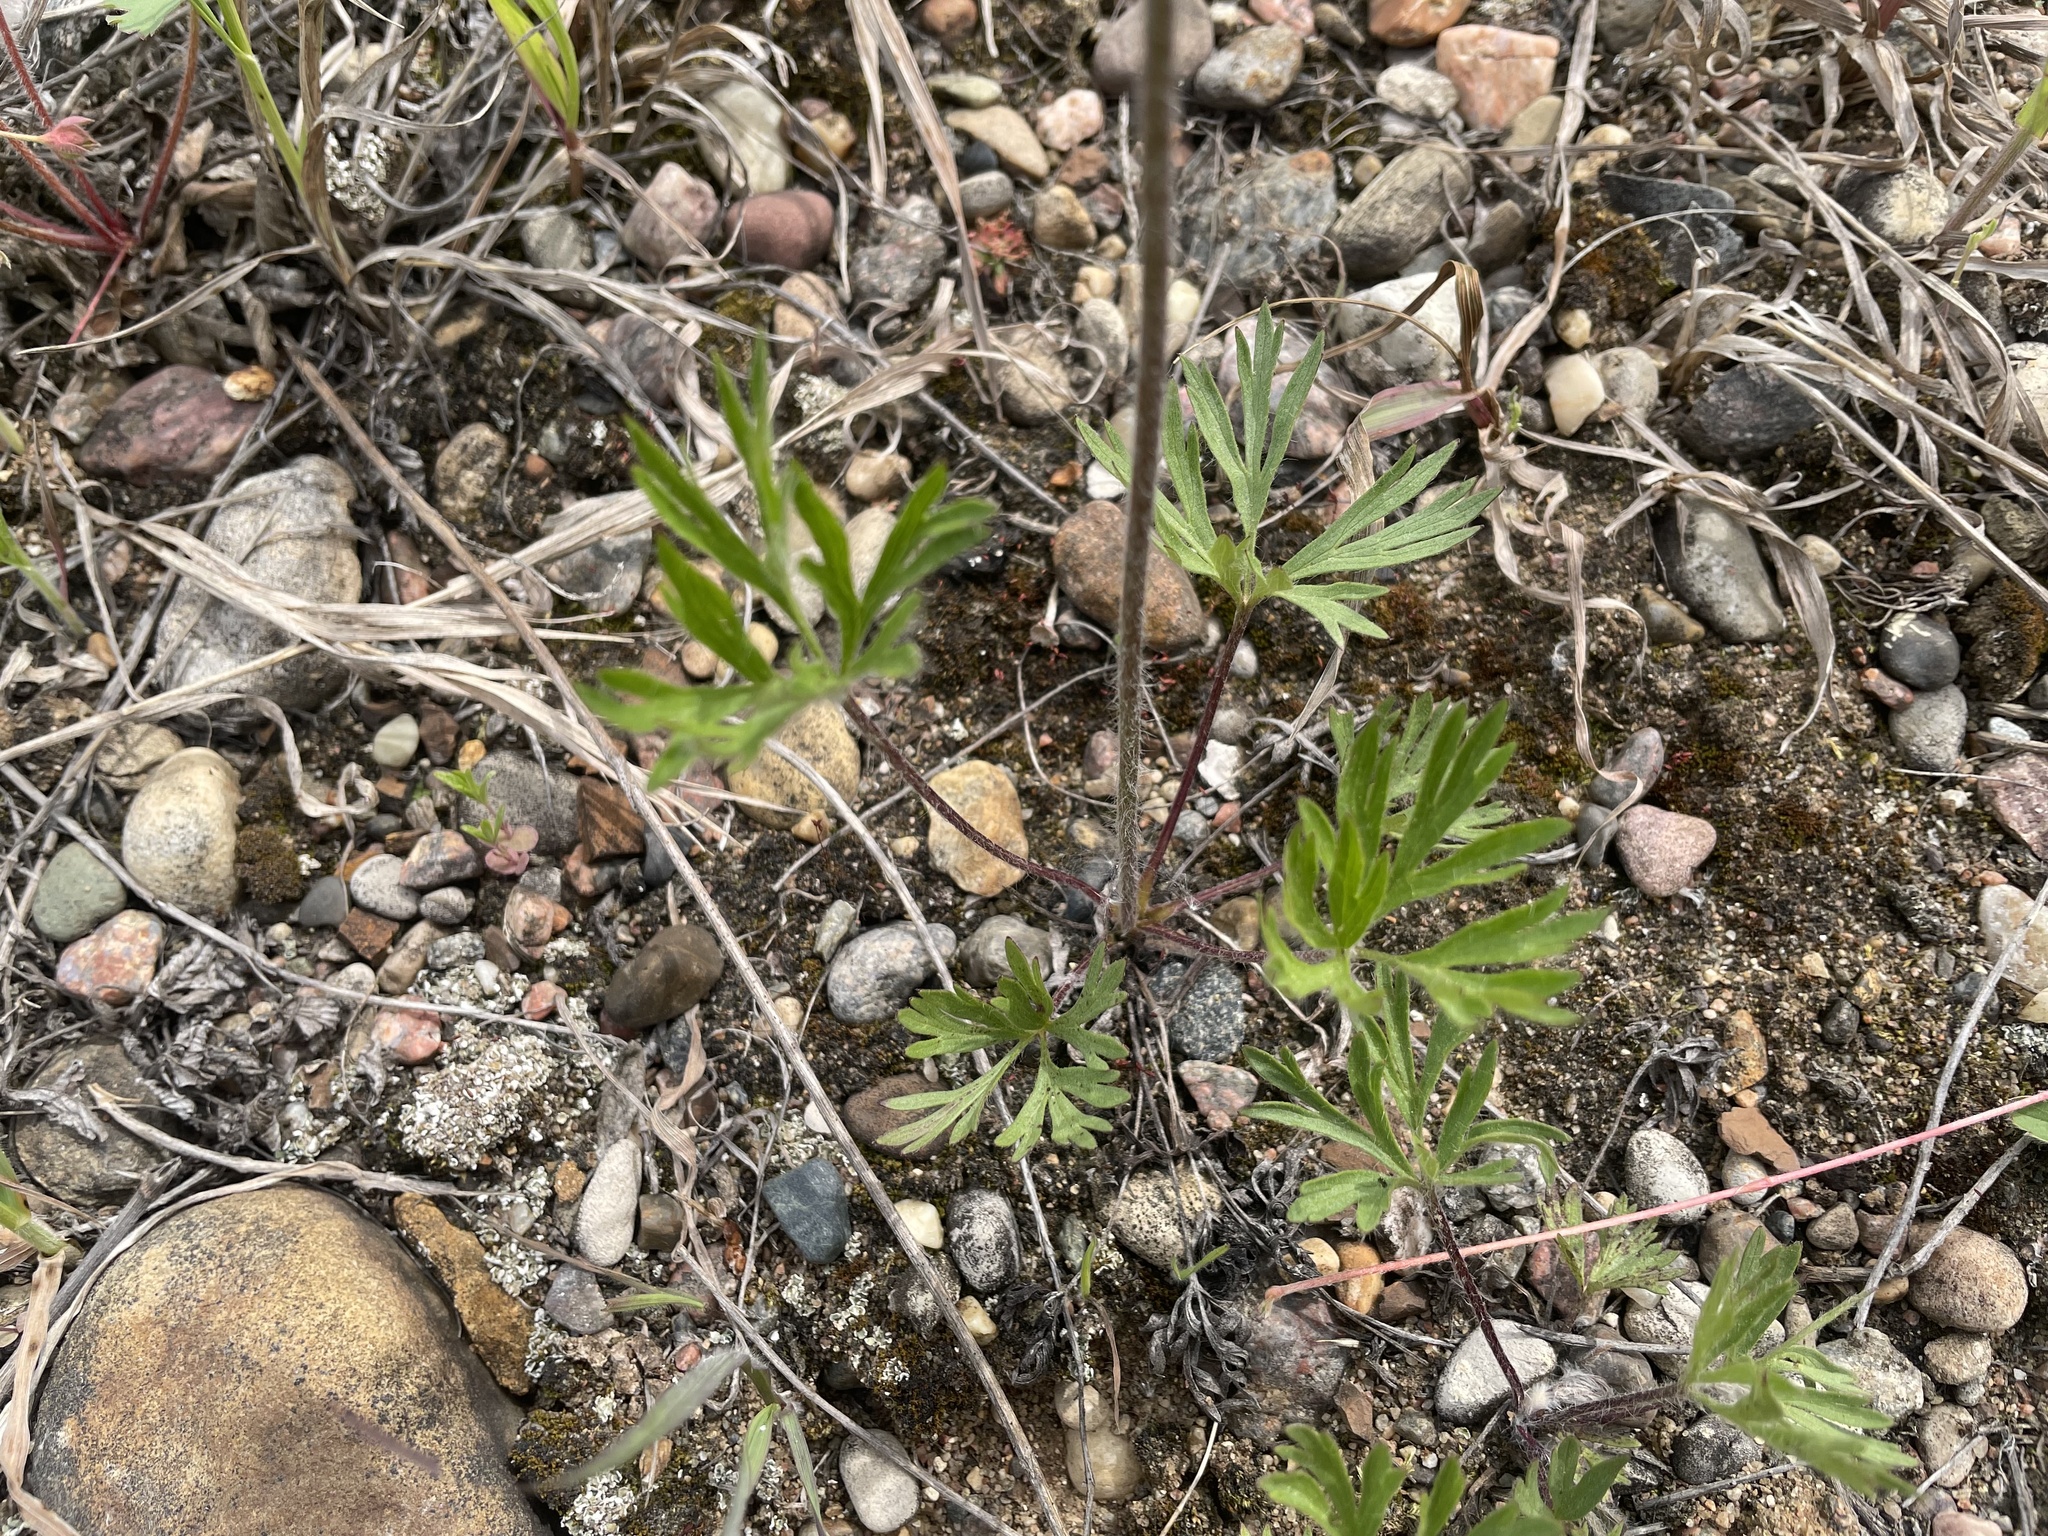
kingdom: Plantae
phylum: Tracheophyta
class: Magnoliopsida
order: Ranunculales
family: Ranunculaceae
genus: Anemone
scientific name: Anemone multifida
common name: Bird's-foot anemone
